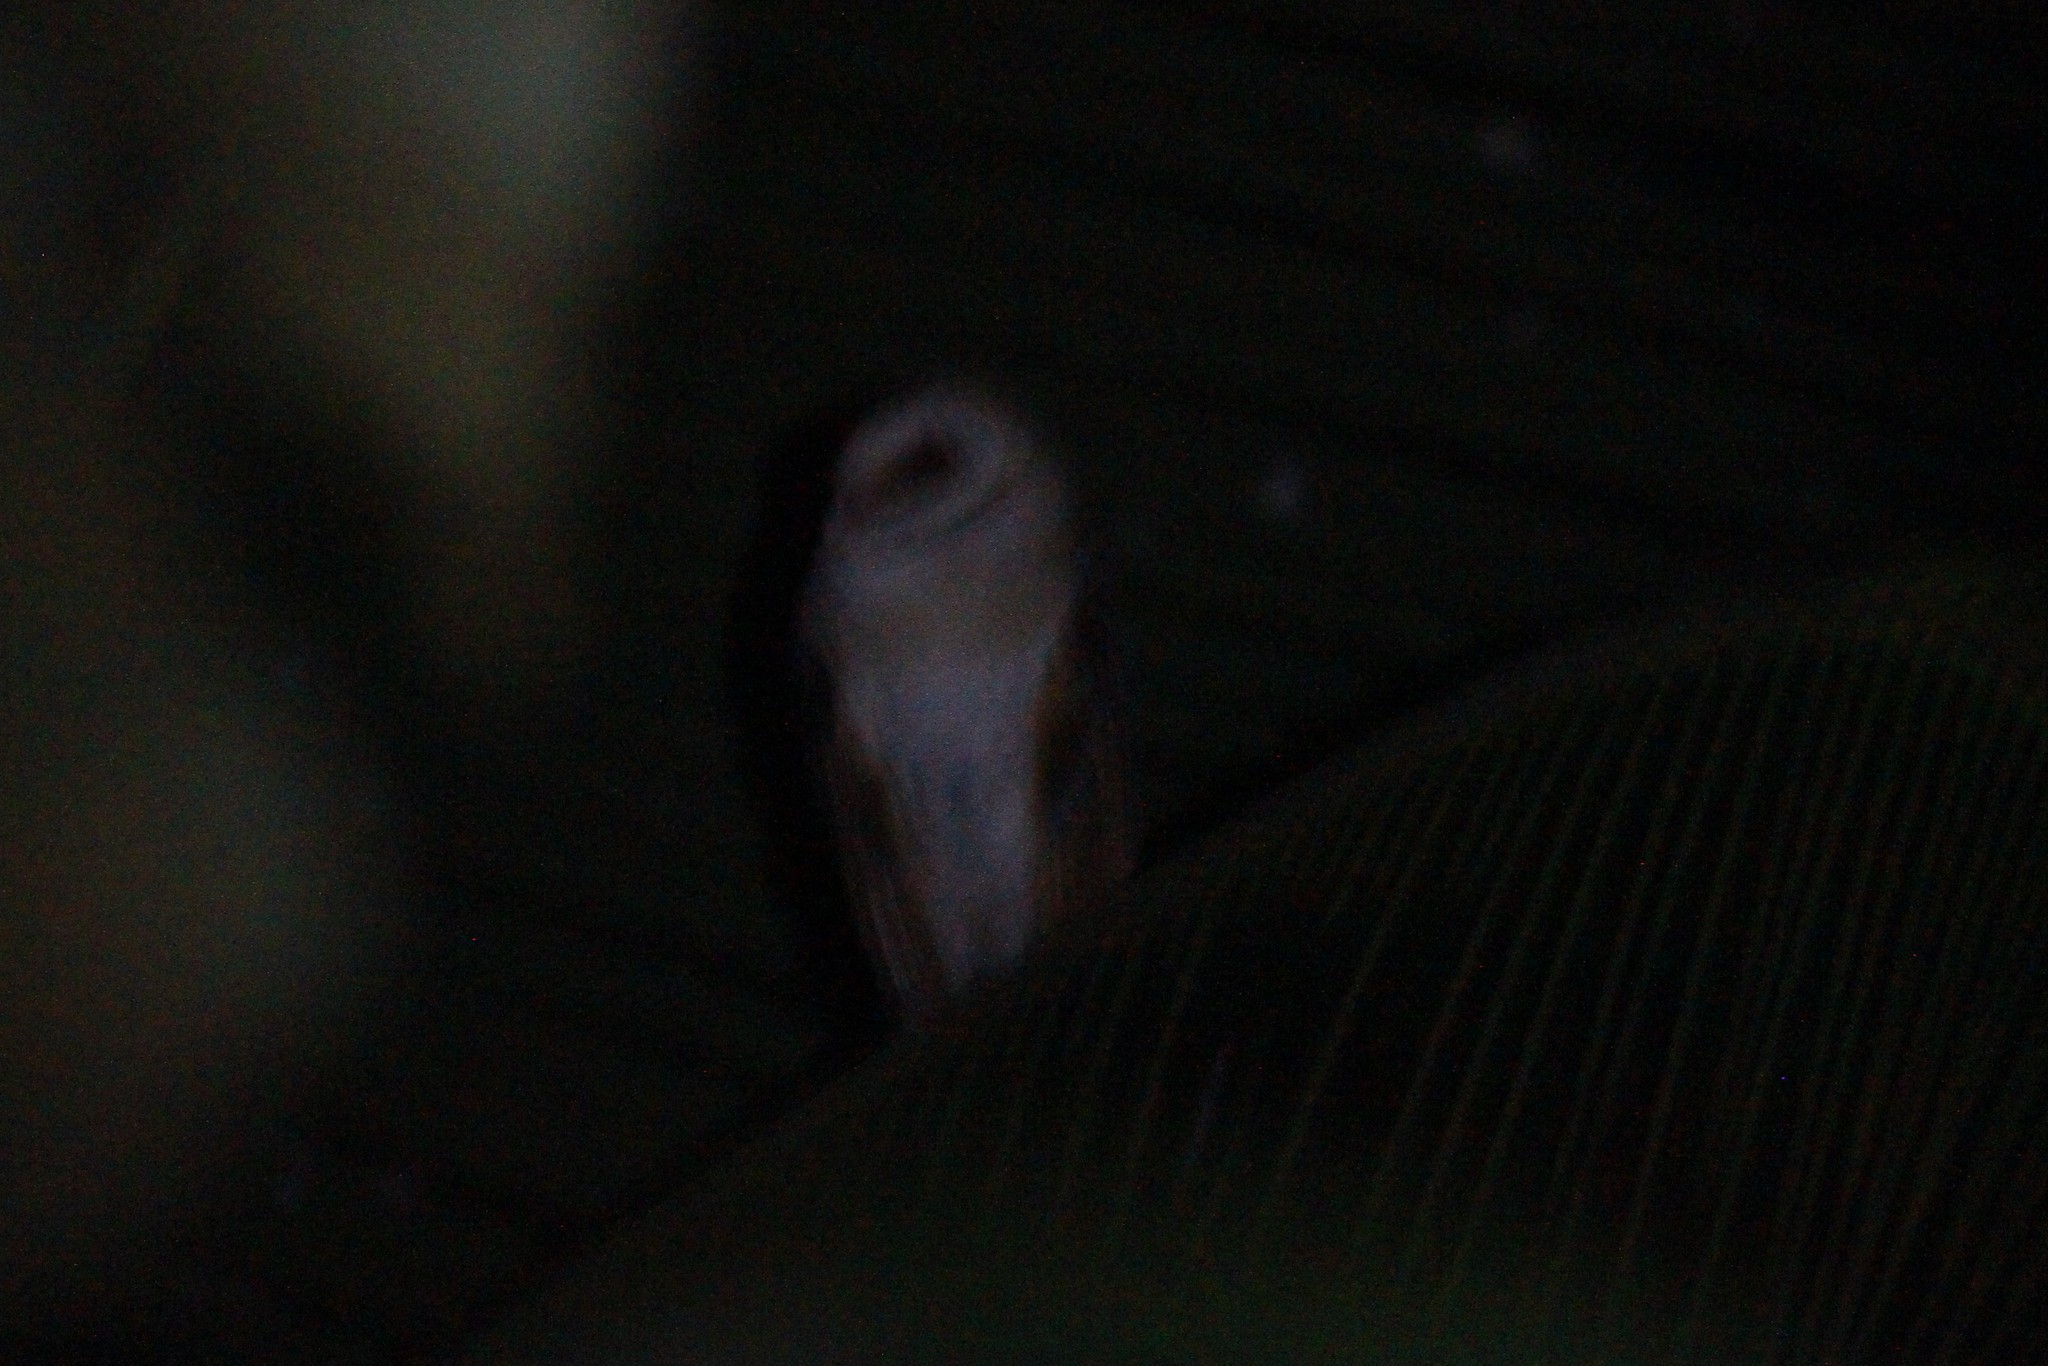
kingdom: Animalia
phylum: Chordata
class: Aves
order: Strigiformes
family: Tytonidae
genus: Tyto
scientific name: Tyto alba
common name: Barn owl
